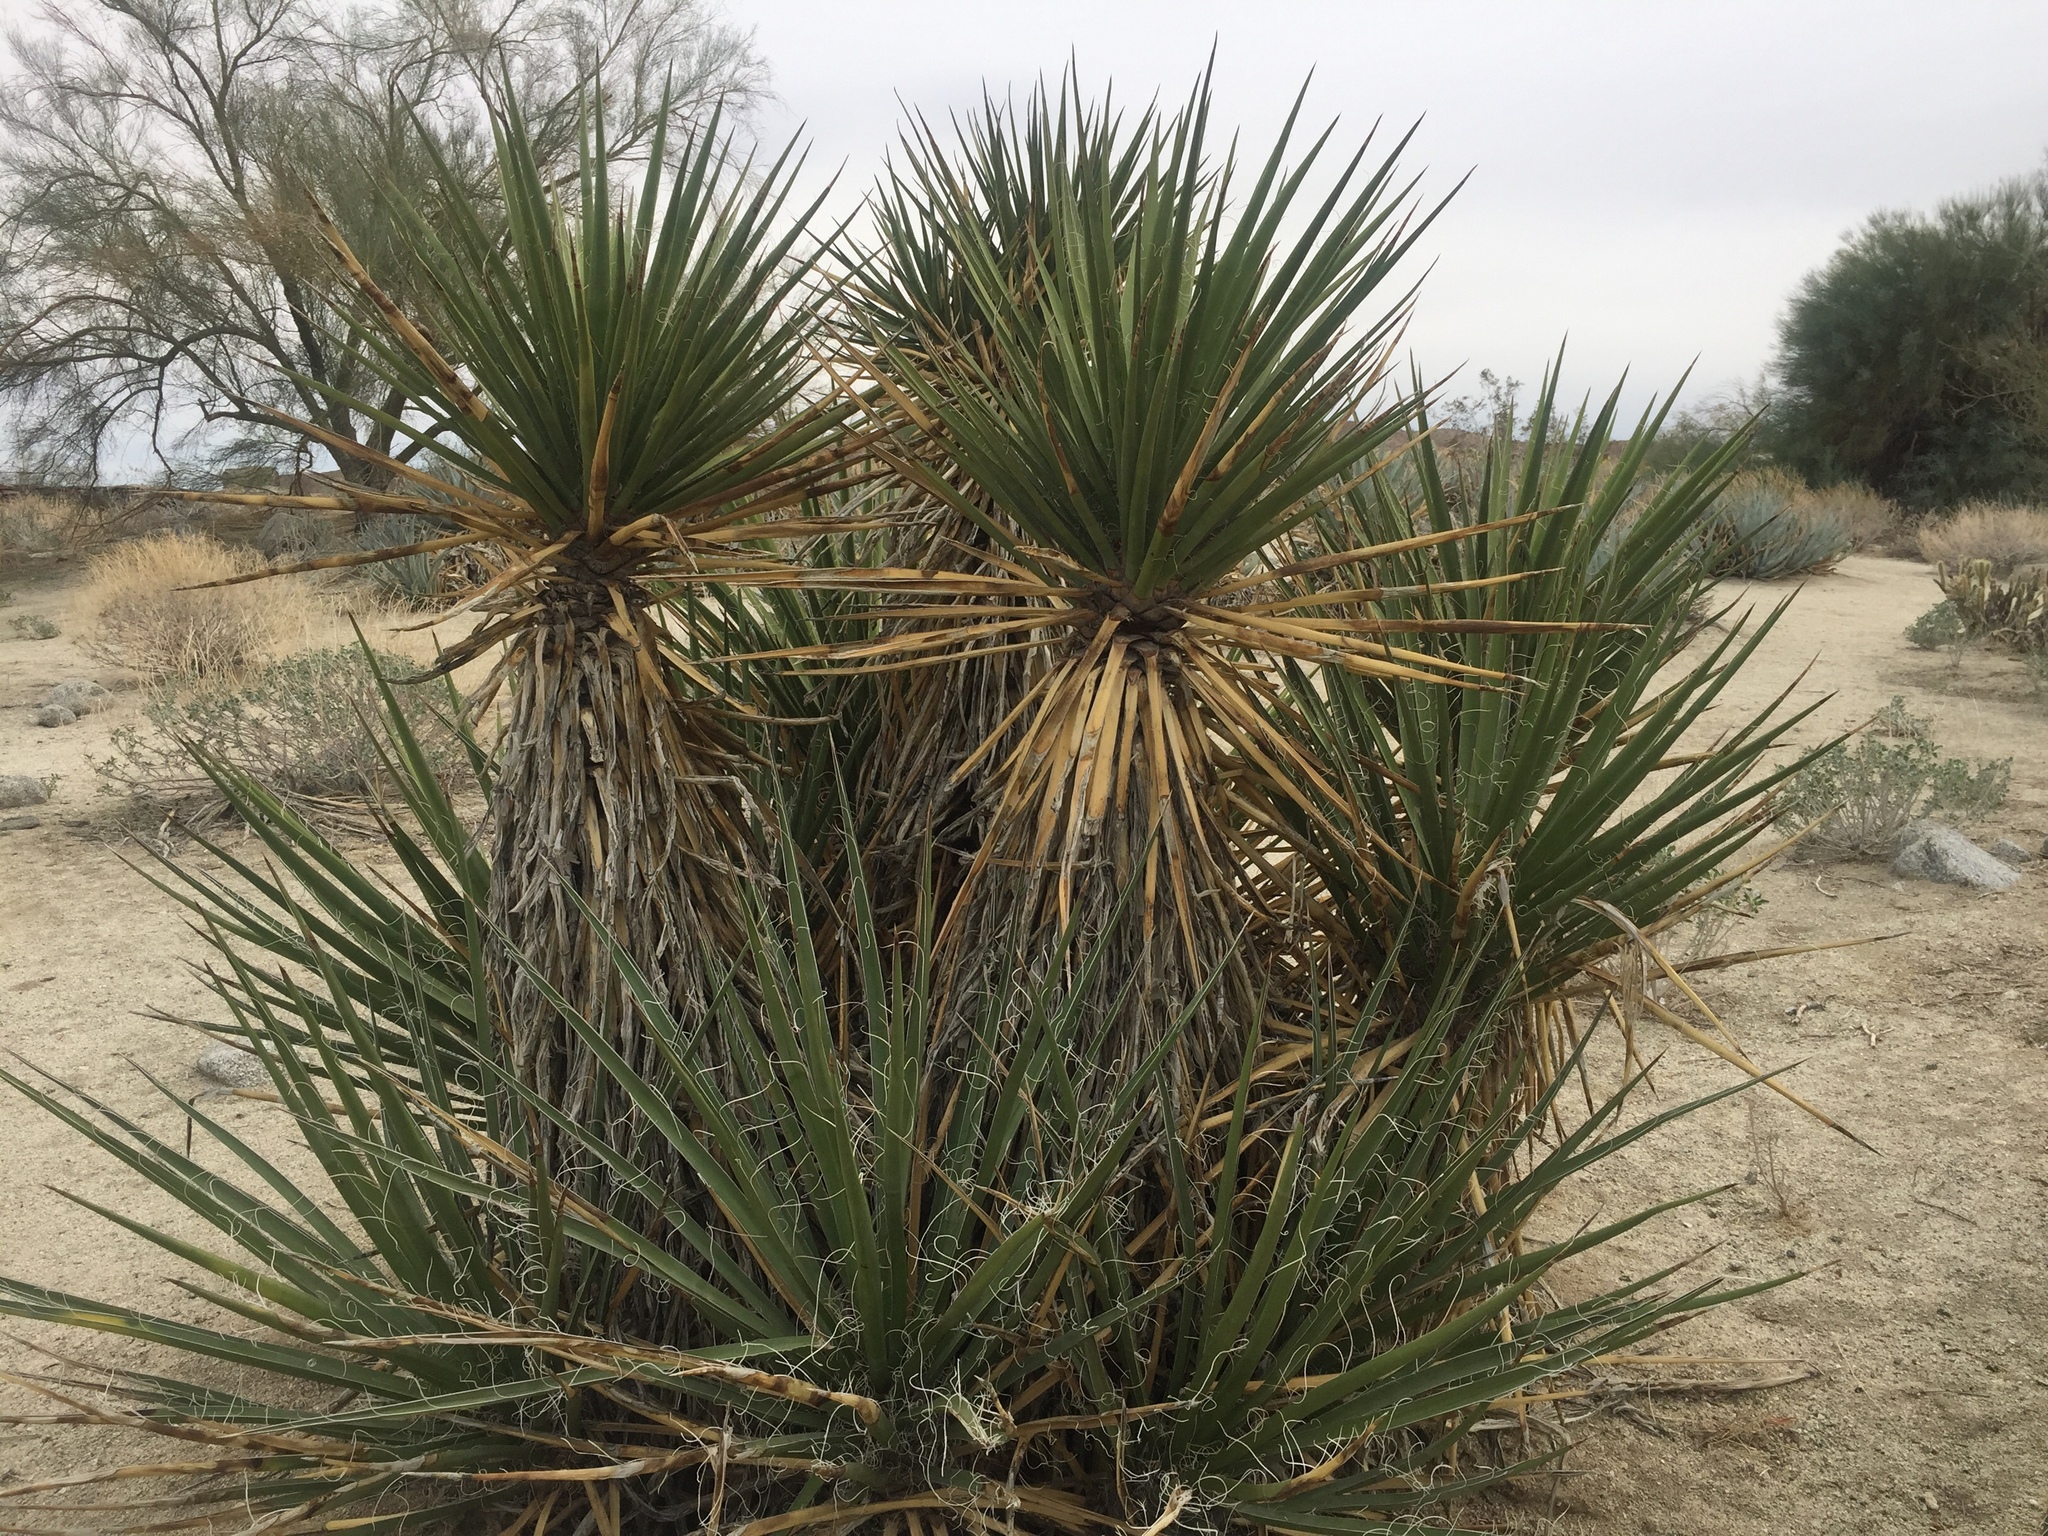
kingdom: Plantae
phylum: Tracheophyta
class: Liliopsida
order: Asparagales
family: Asparagaceae
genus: Yucca
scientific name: Yucca schidigera
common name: Mojave yucca
